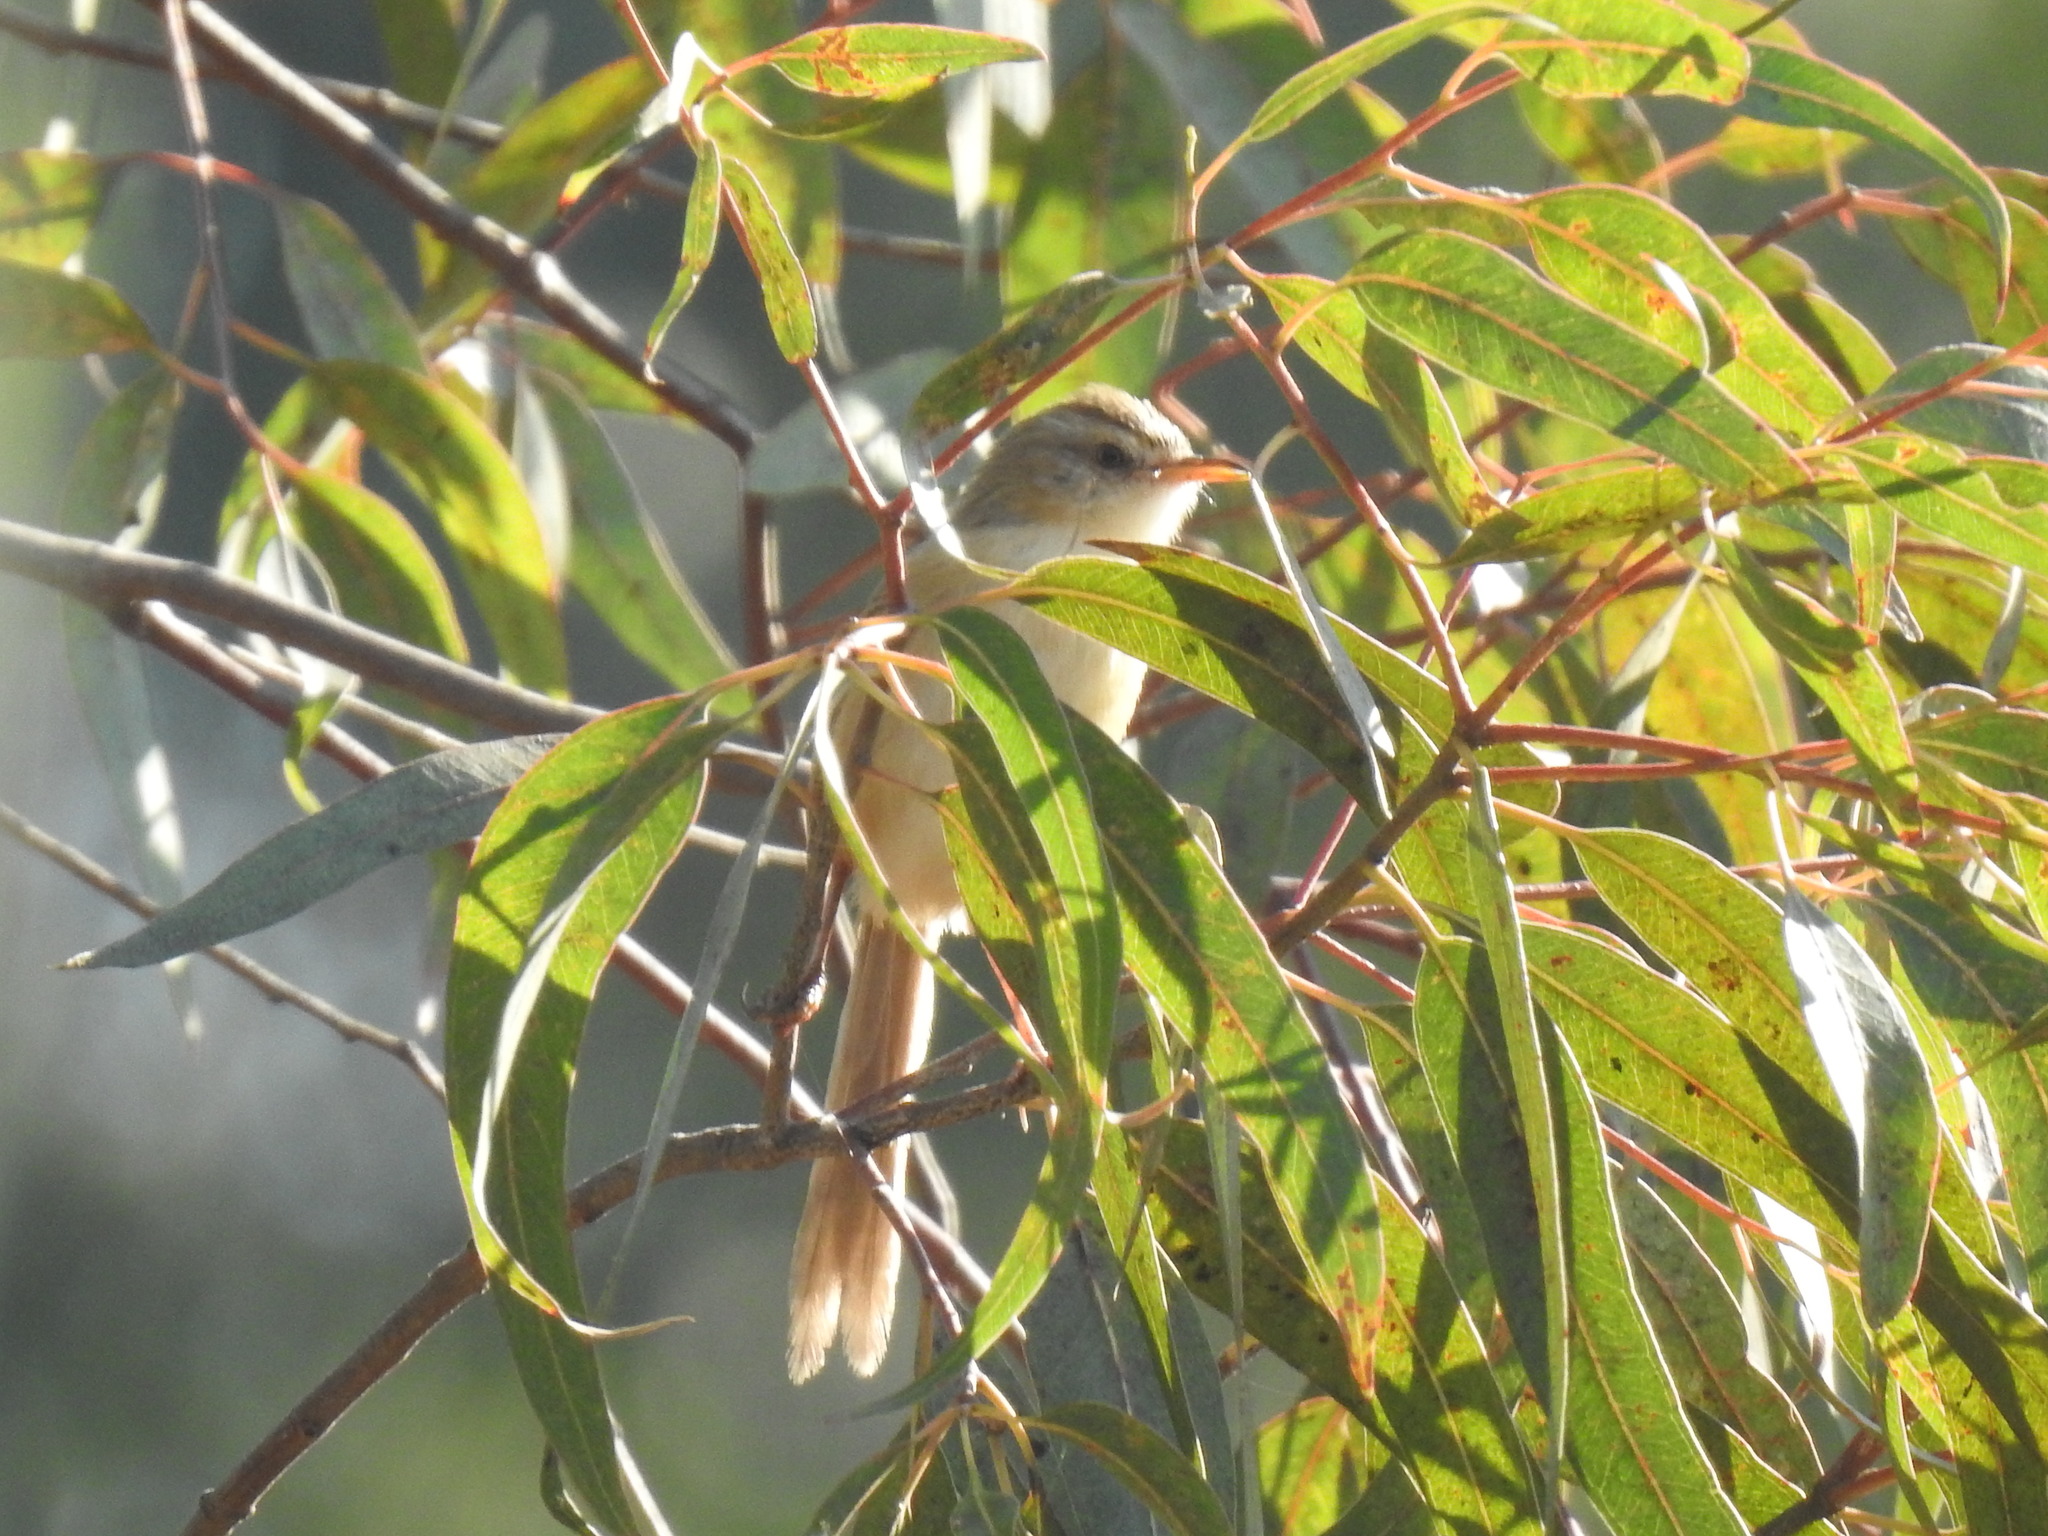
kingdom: Animalia
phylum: Chordata
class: Aves
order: Passeriformes
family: Cisticolidae
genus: Prinia
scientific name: Prinia subflava
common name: Tawny-flanked prinia
